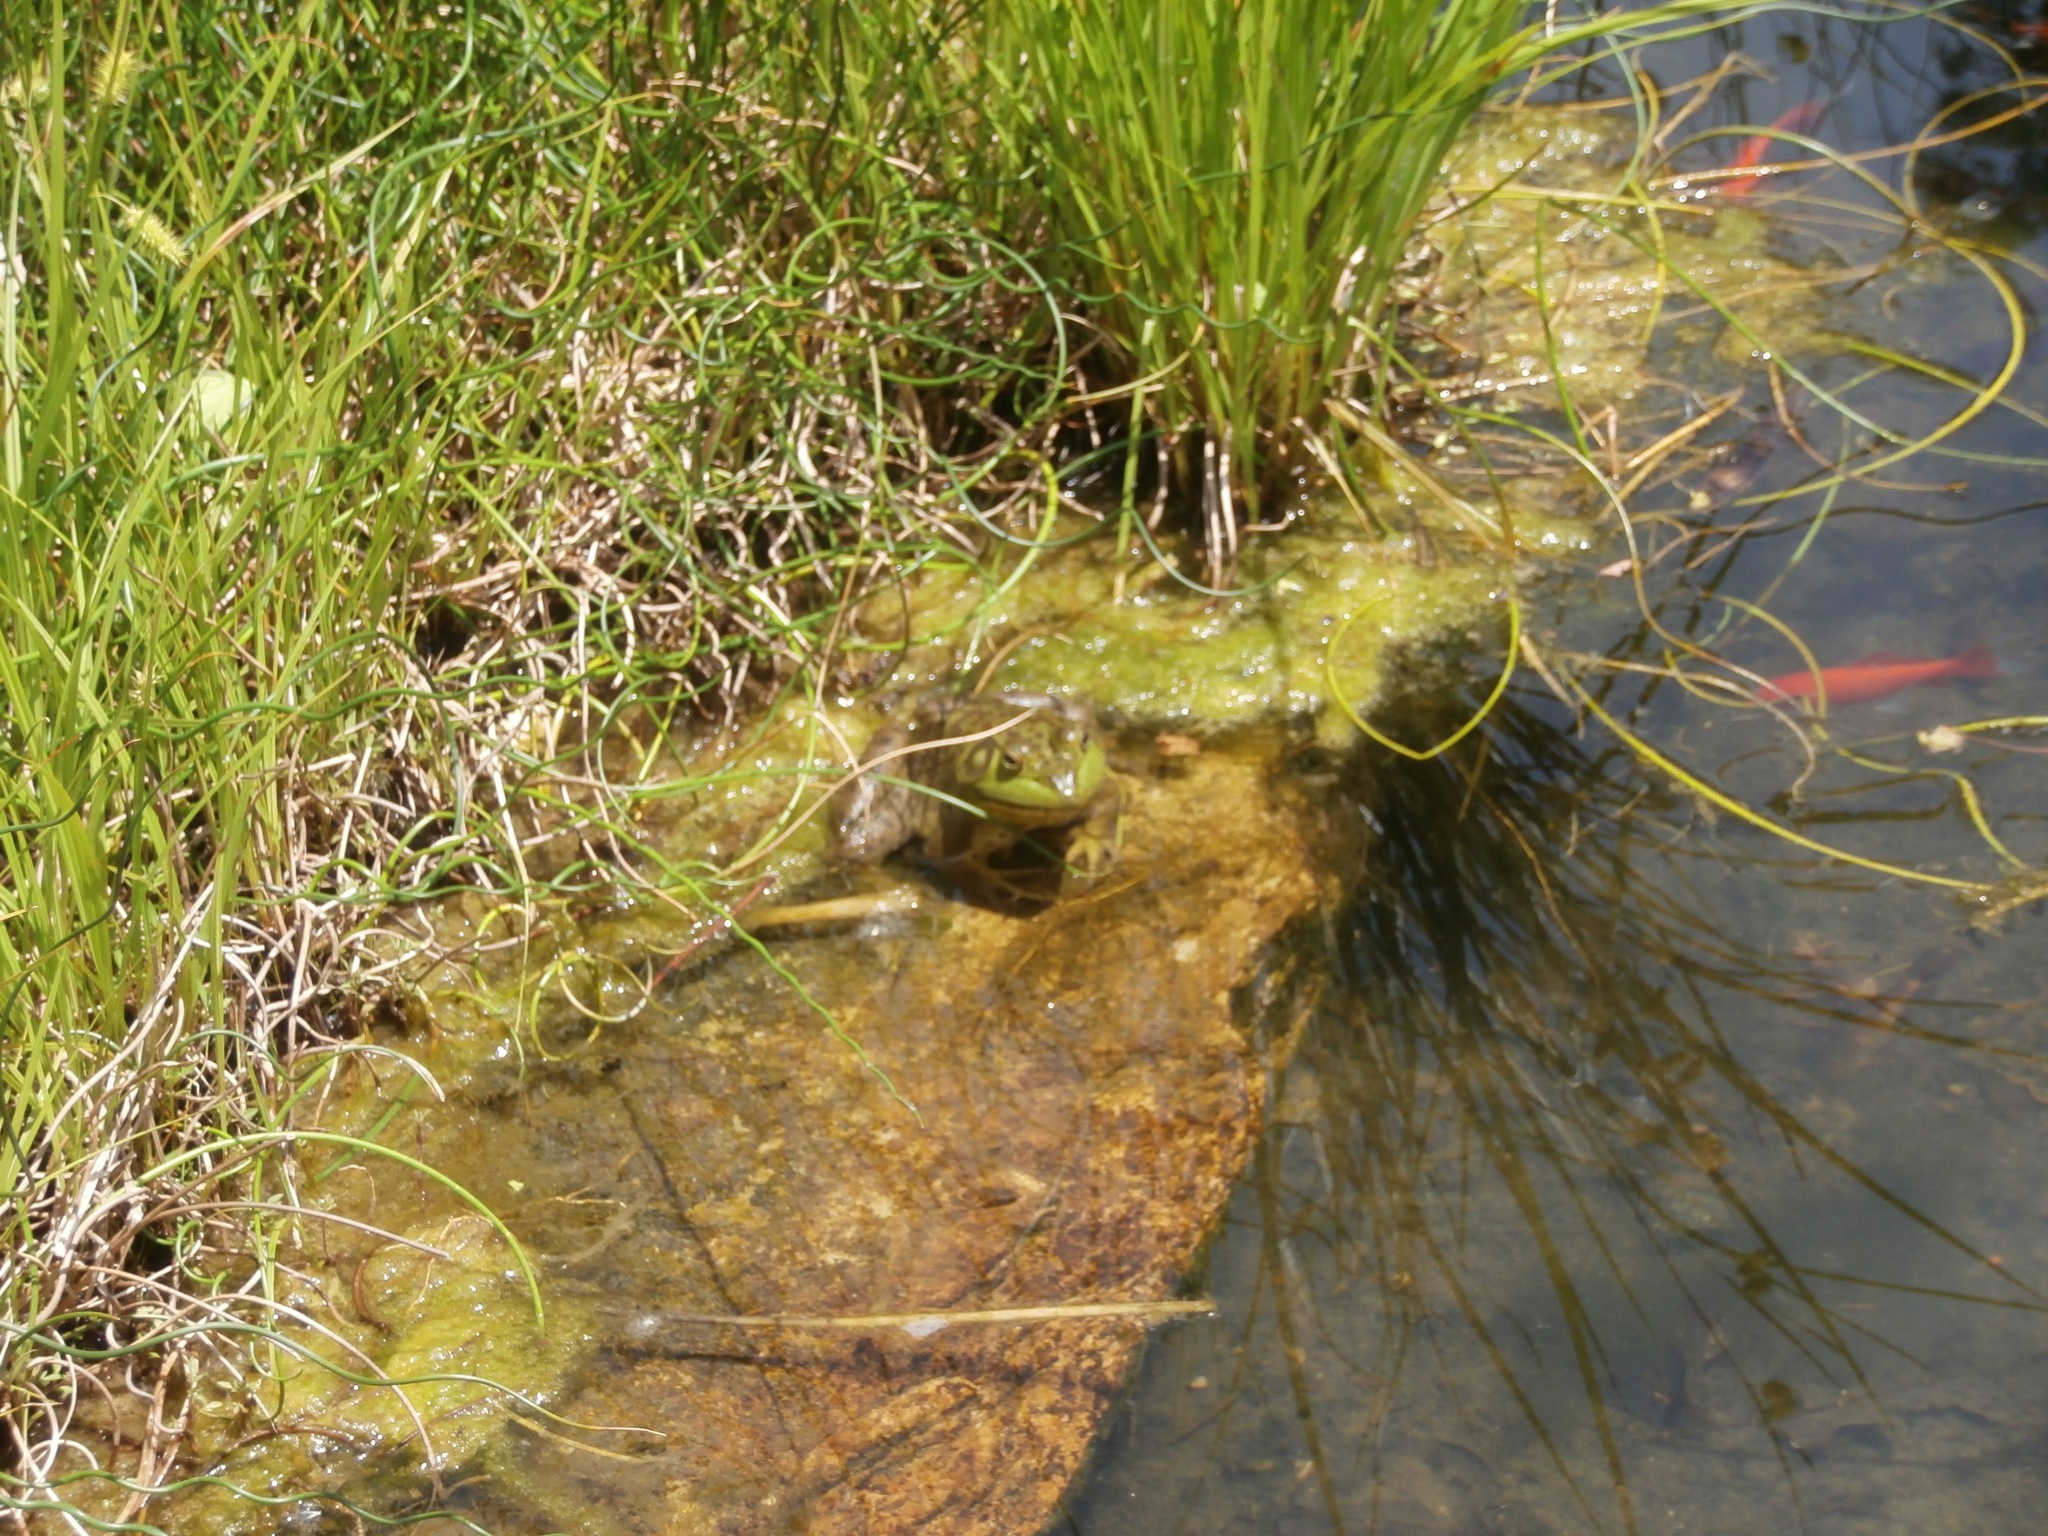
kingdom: Animalia
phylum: Chordata
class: Amphibia
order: Anura
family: Ranidae
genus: Lithobates
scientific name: Lithobates catesbeianus
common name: American bullfrog
